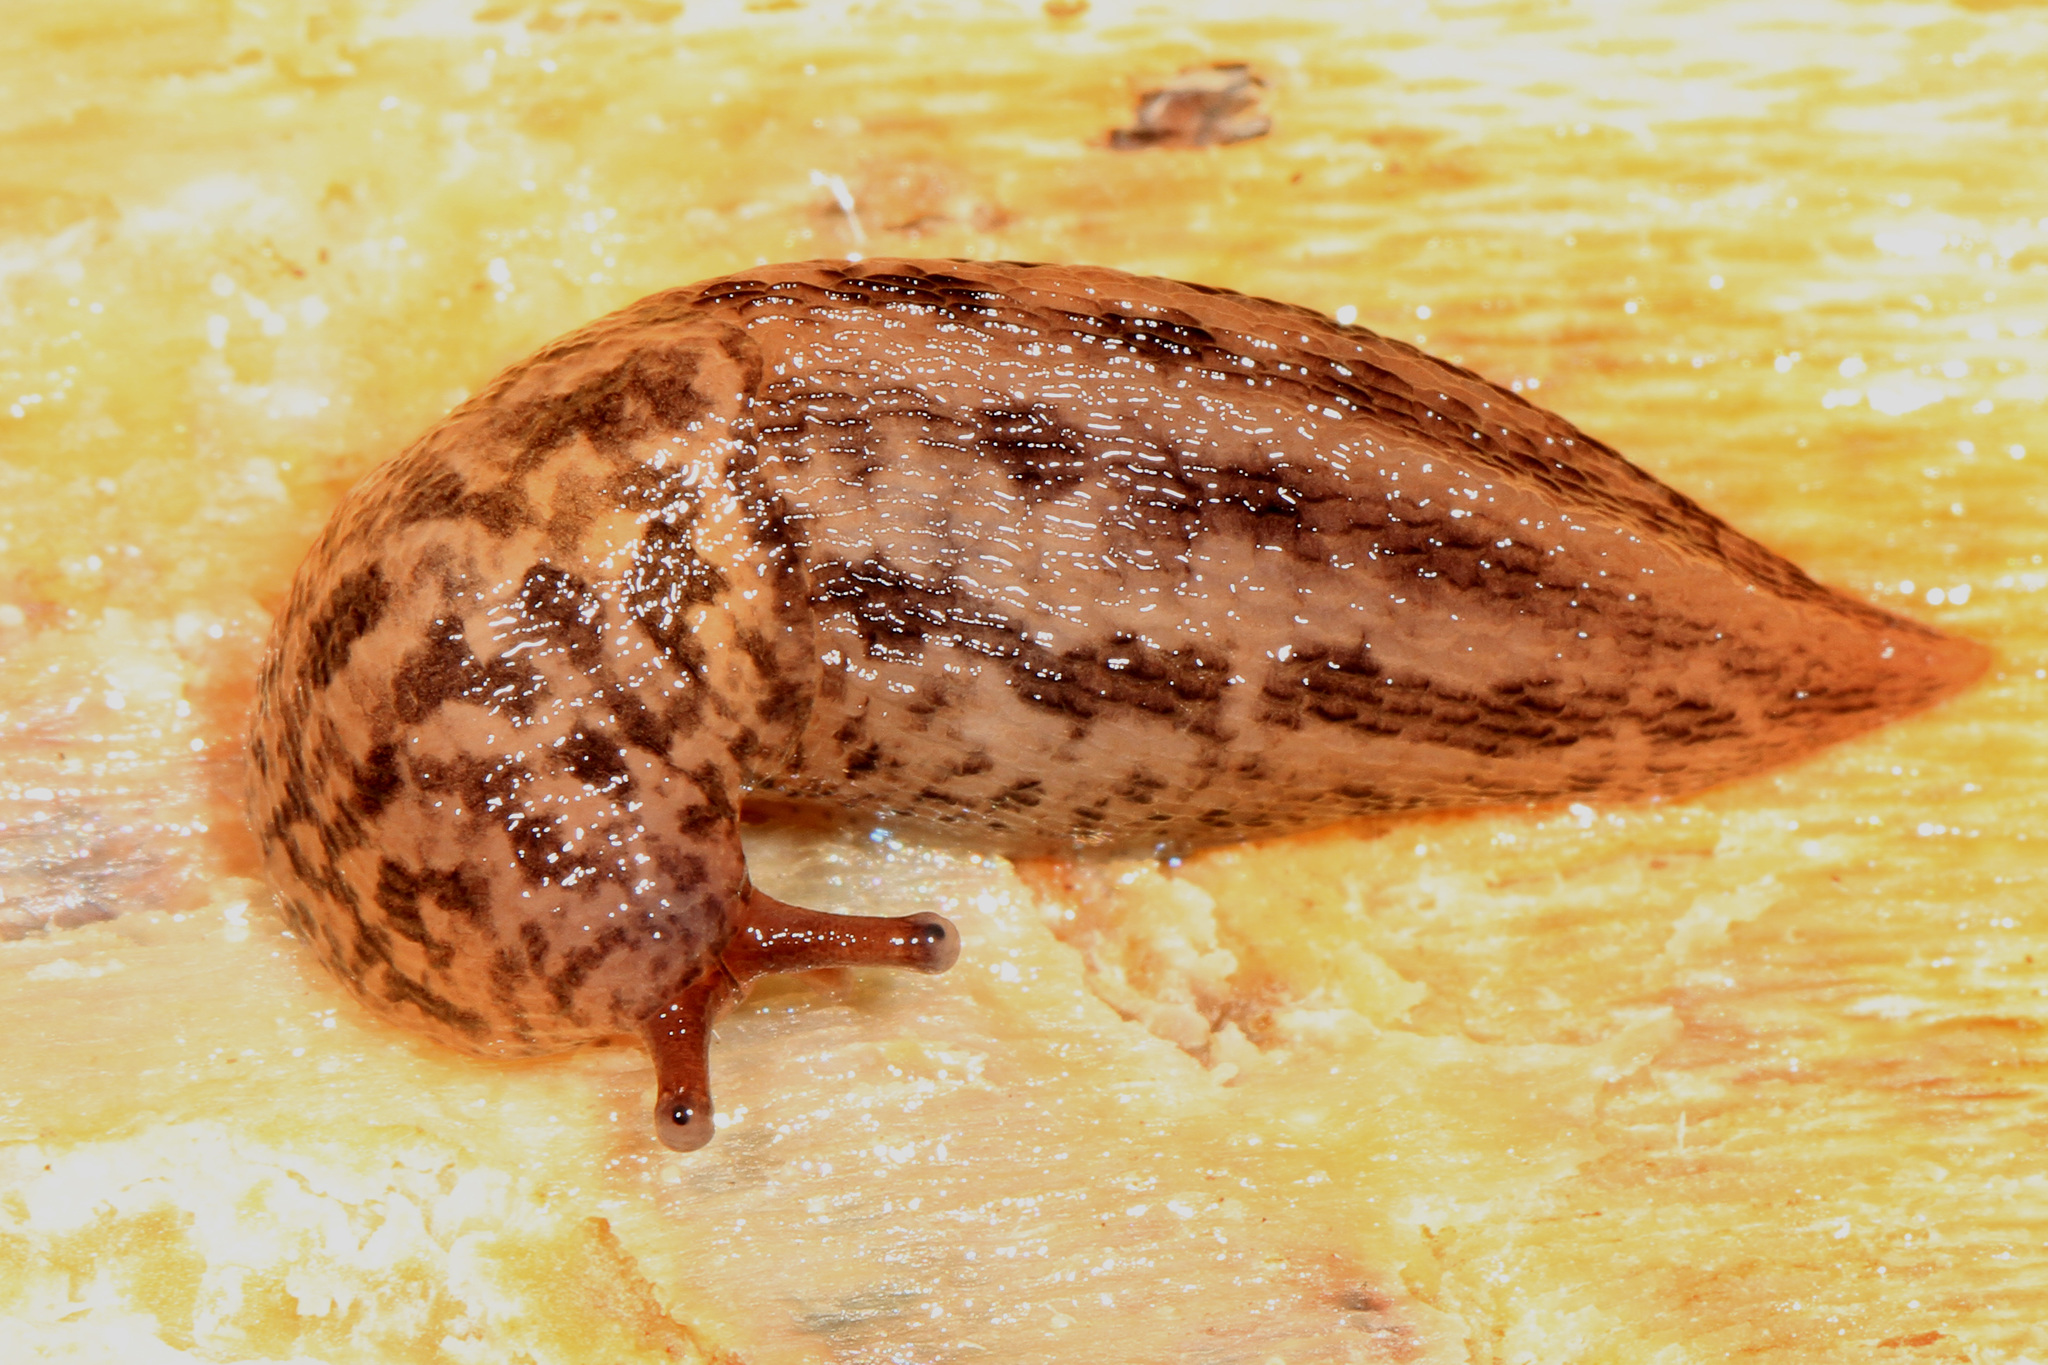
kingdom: Animalia
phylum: Mollusca
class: Gastropoda
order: Stylommatophora
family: Limacidae
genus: Limax
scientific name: Limax maximus
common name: Great grey slug
